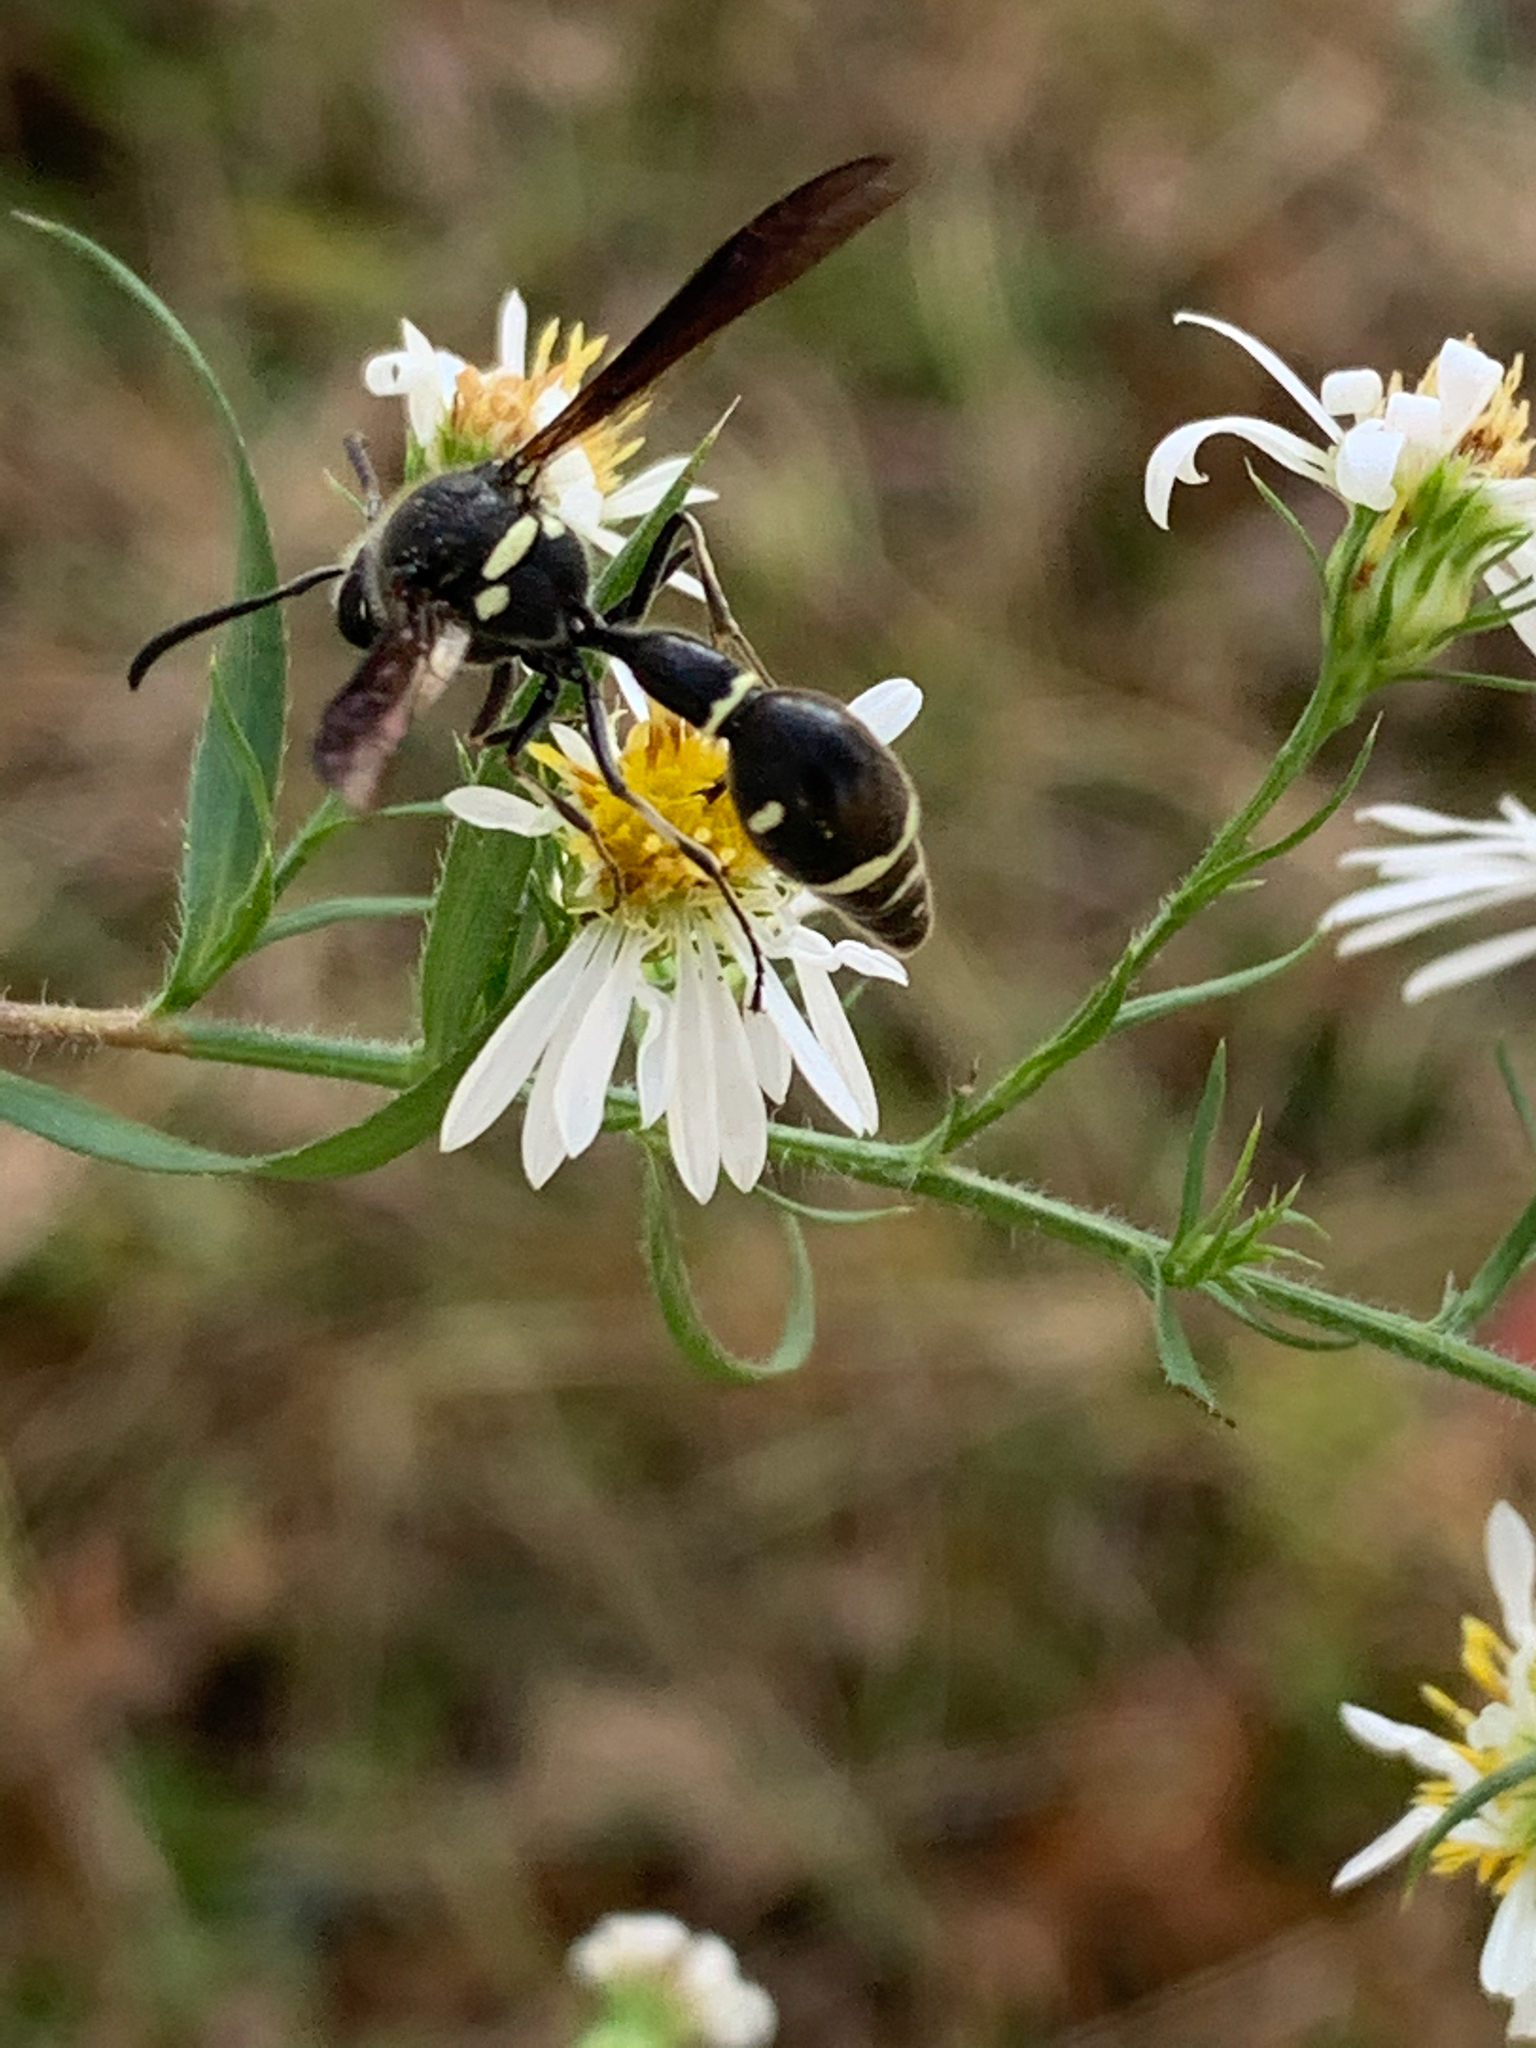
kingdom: Animalia
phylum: Arthropoda
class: Insecta
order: Hymenoptera
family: Vespidae
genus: Eumenes
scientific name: Eumenes fraternus
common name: Fraternal potter wasp
